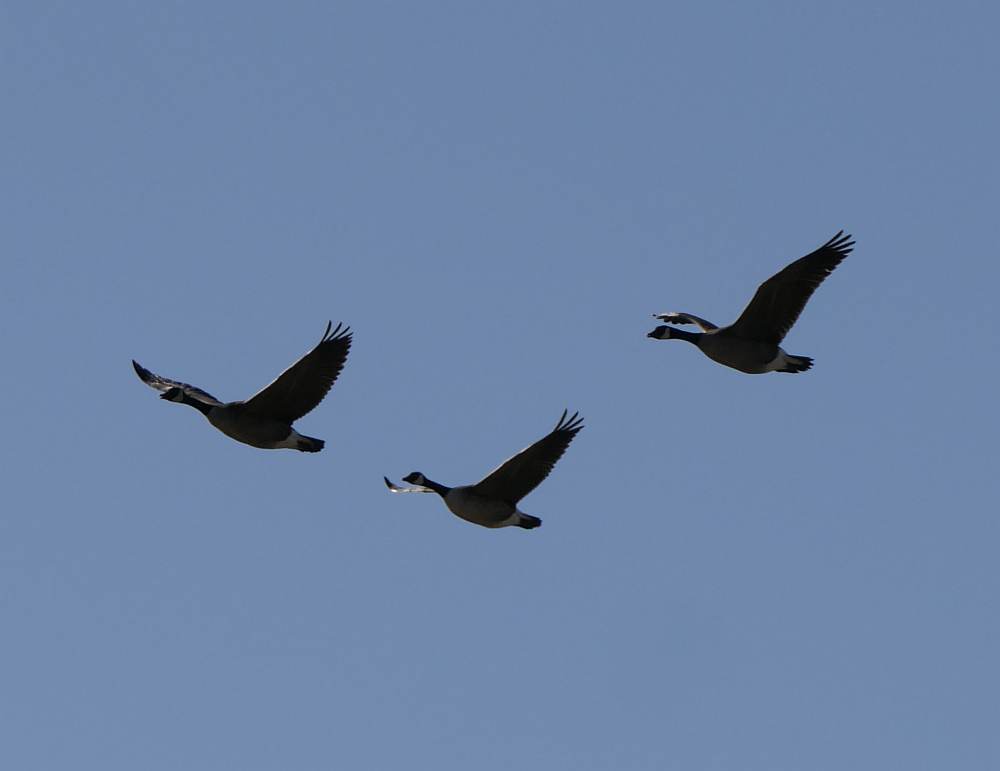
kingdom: Animalia
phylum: Chordata
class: Aves
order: Anseriformes
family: Anatidae
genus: Branta
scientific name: Branta canadensis
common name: Canada goose
